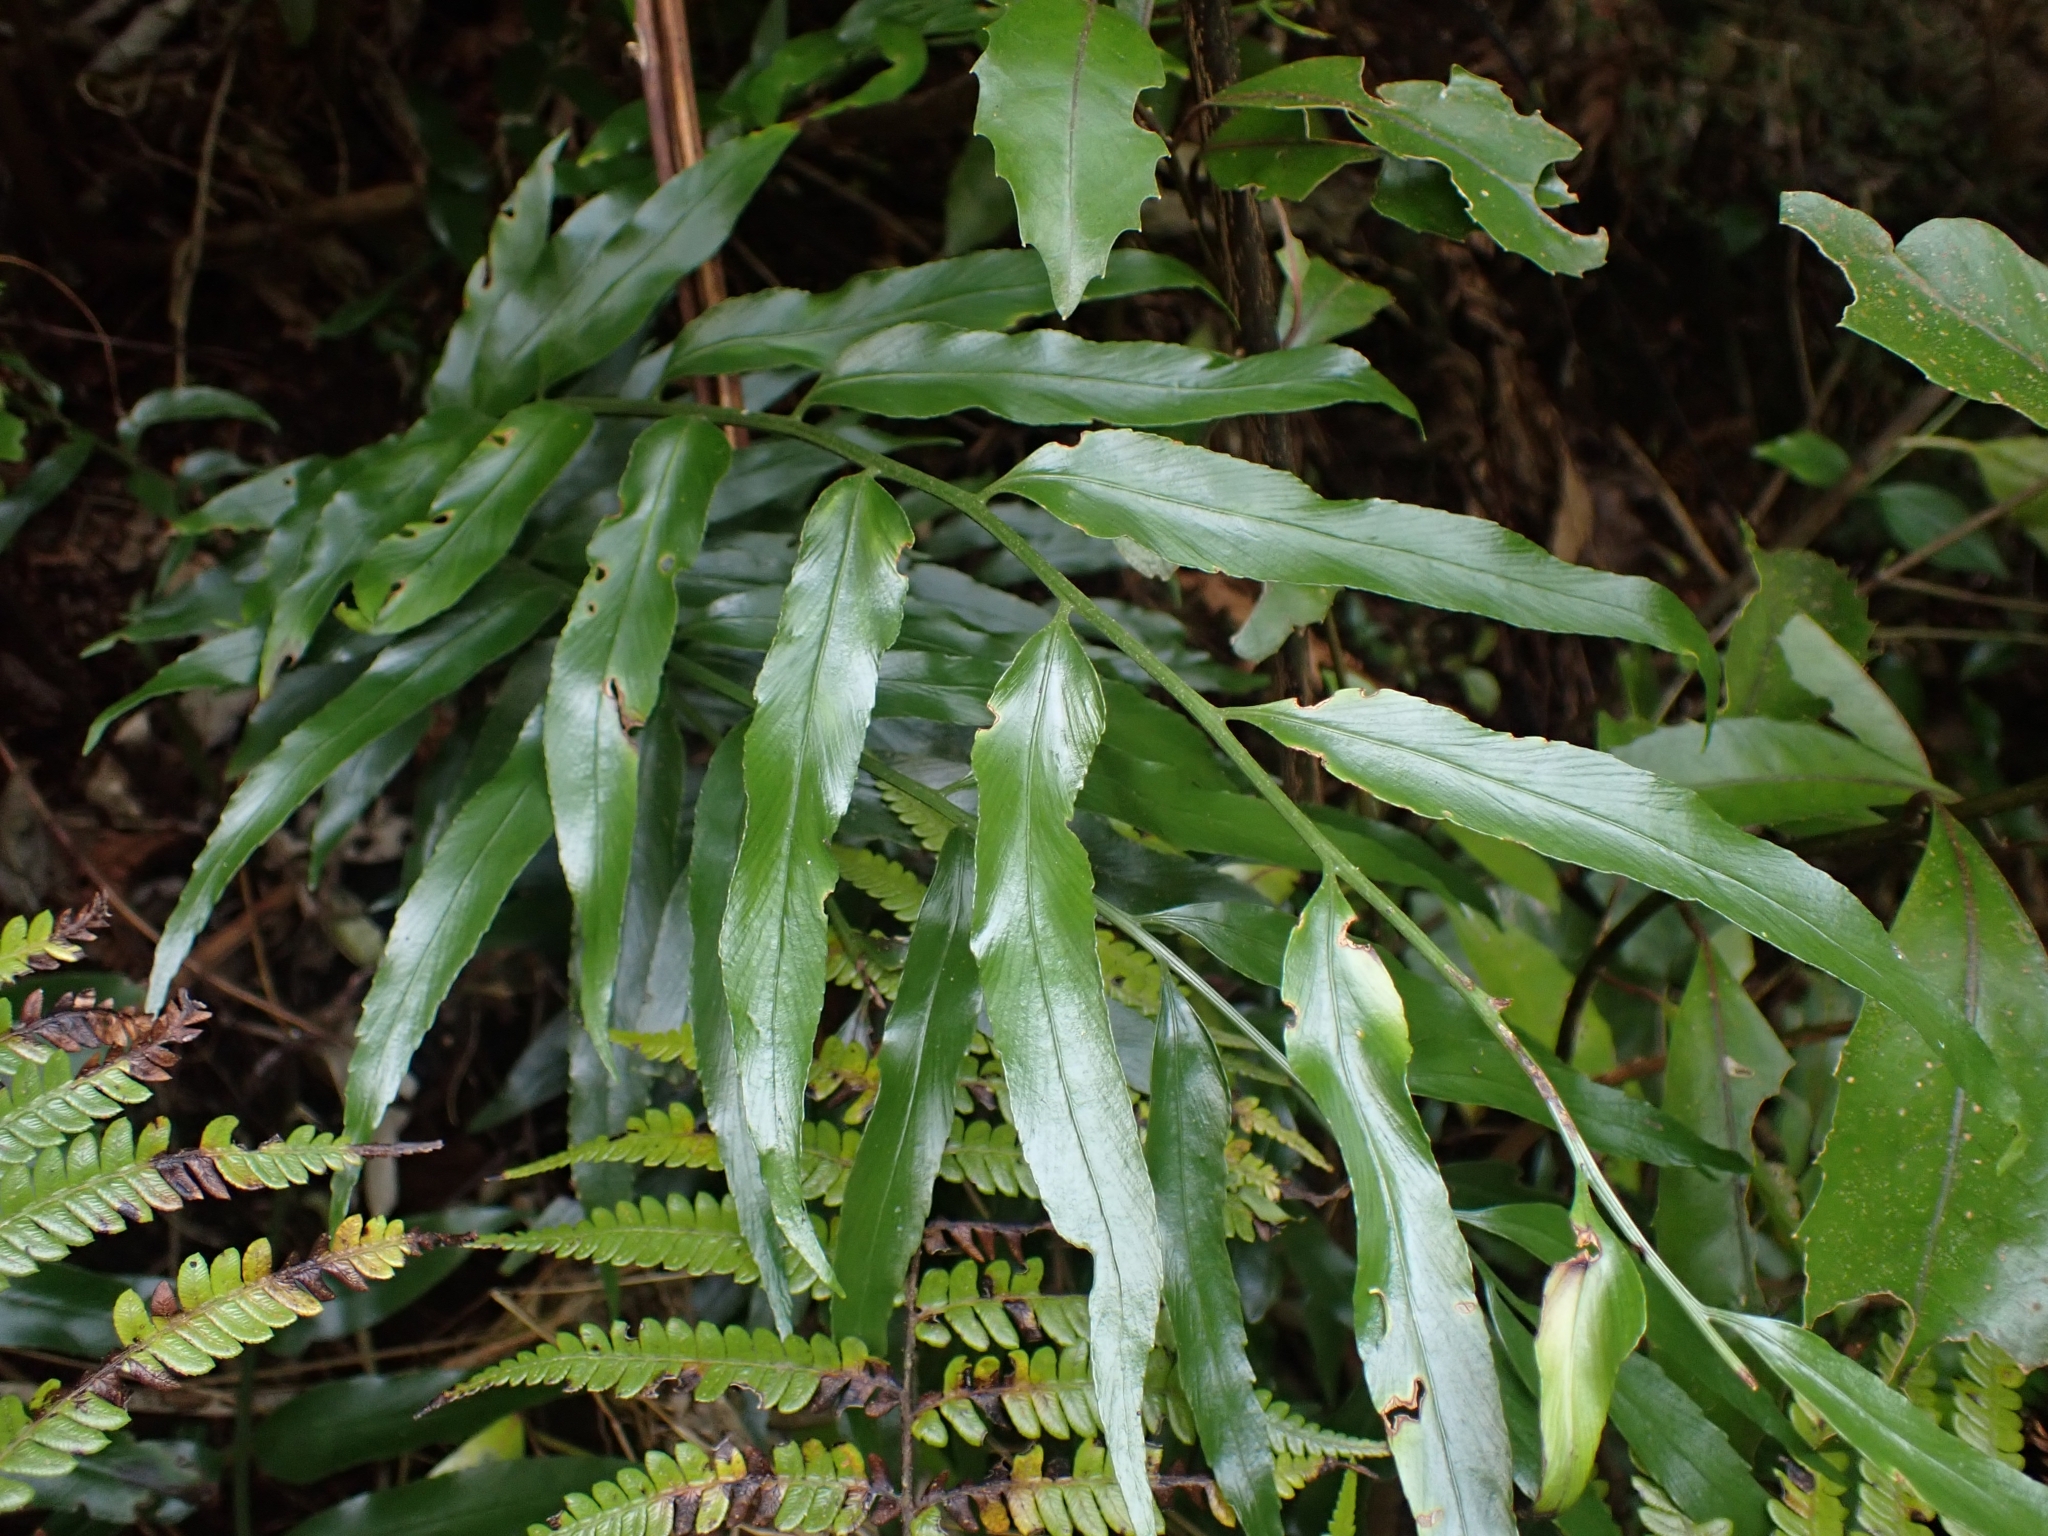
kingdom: Plantae
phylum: Tracheophyta
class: Polypodiopsida
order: Polypodiales
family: Aspleniaceae
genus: Asplenium
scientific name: Asplenium oblongifolium
